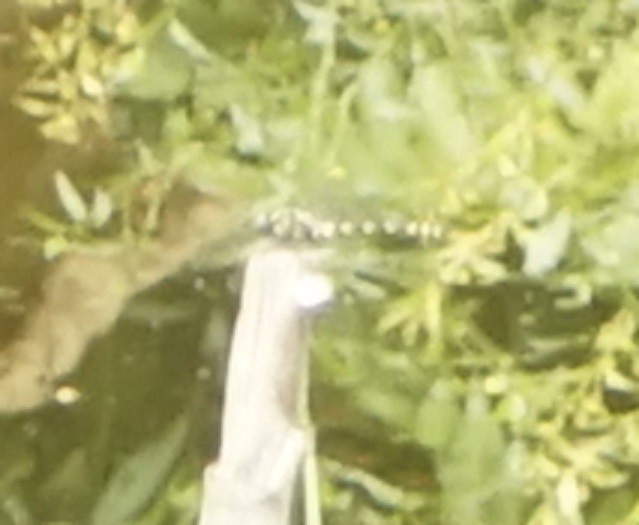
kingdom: Animalia
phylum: Arthropoda
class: Insecta
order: Odonata
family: Gomphidae
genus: Ictinogomphus
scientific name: Ictinogomphus decoratus
